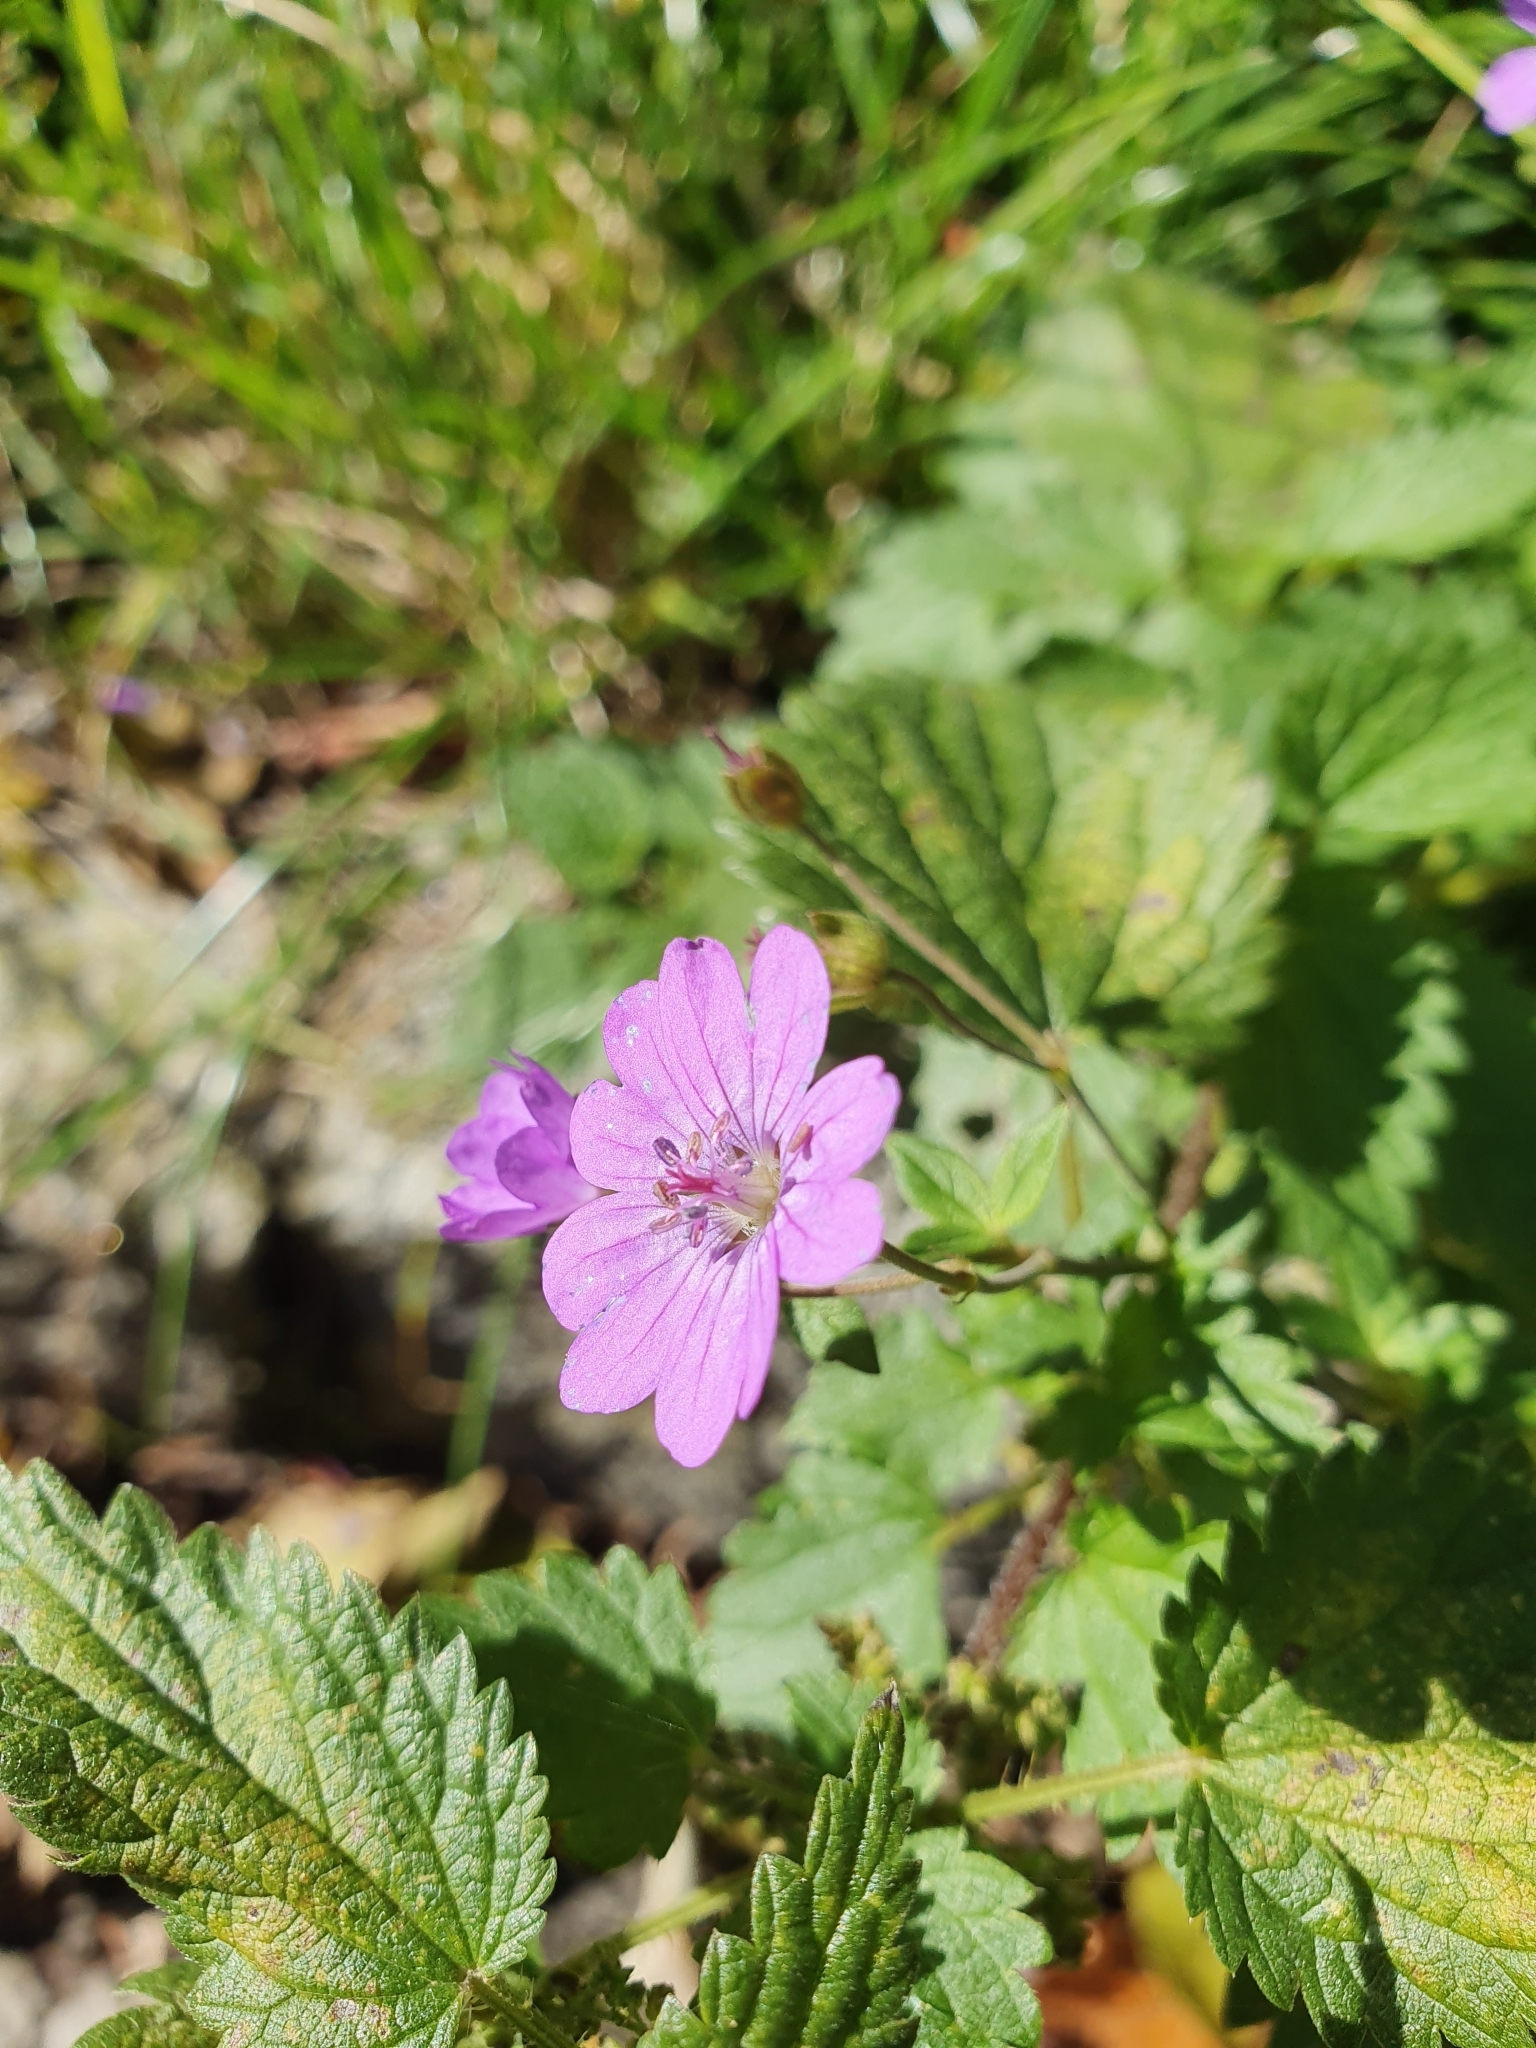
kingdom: Plantae
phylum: Tracheophyta
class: Magnoliopsida
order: Geraniales
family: Geraniaceae
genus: Geranium
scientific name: Geranium pyrenaicum
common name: Hedgerow crane's-bill
